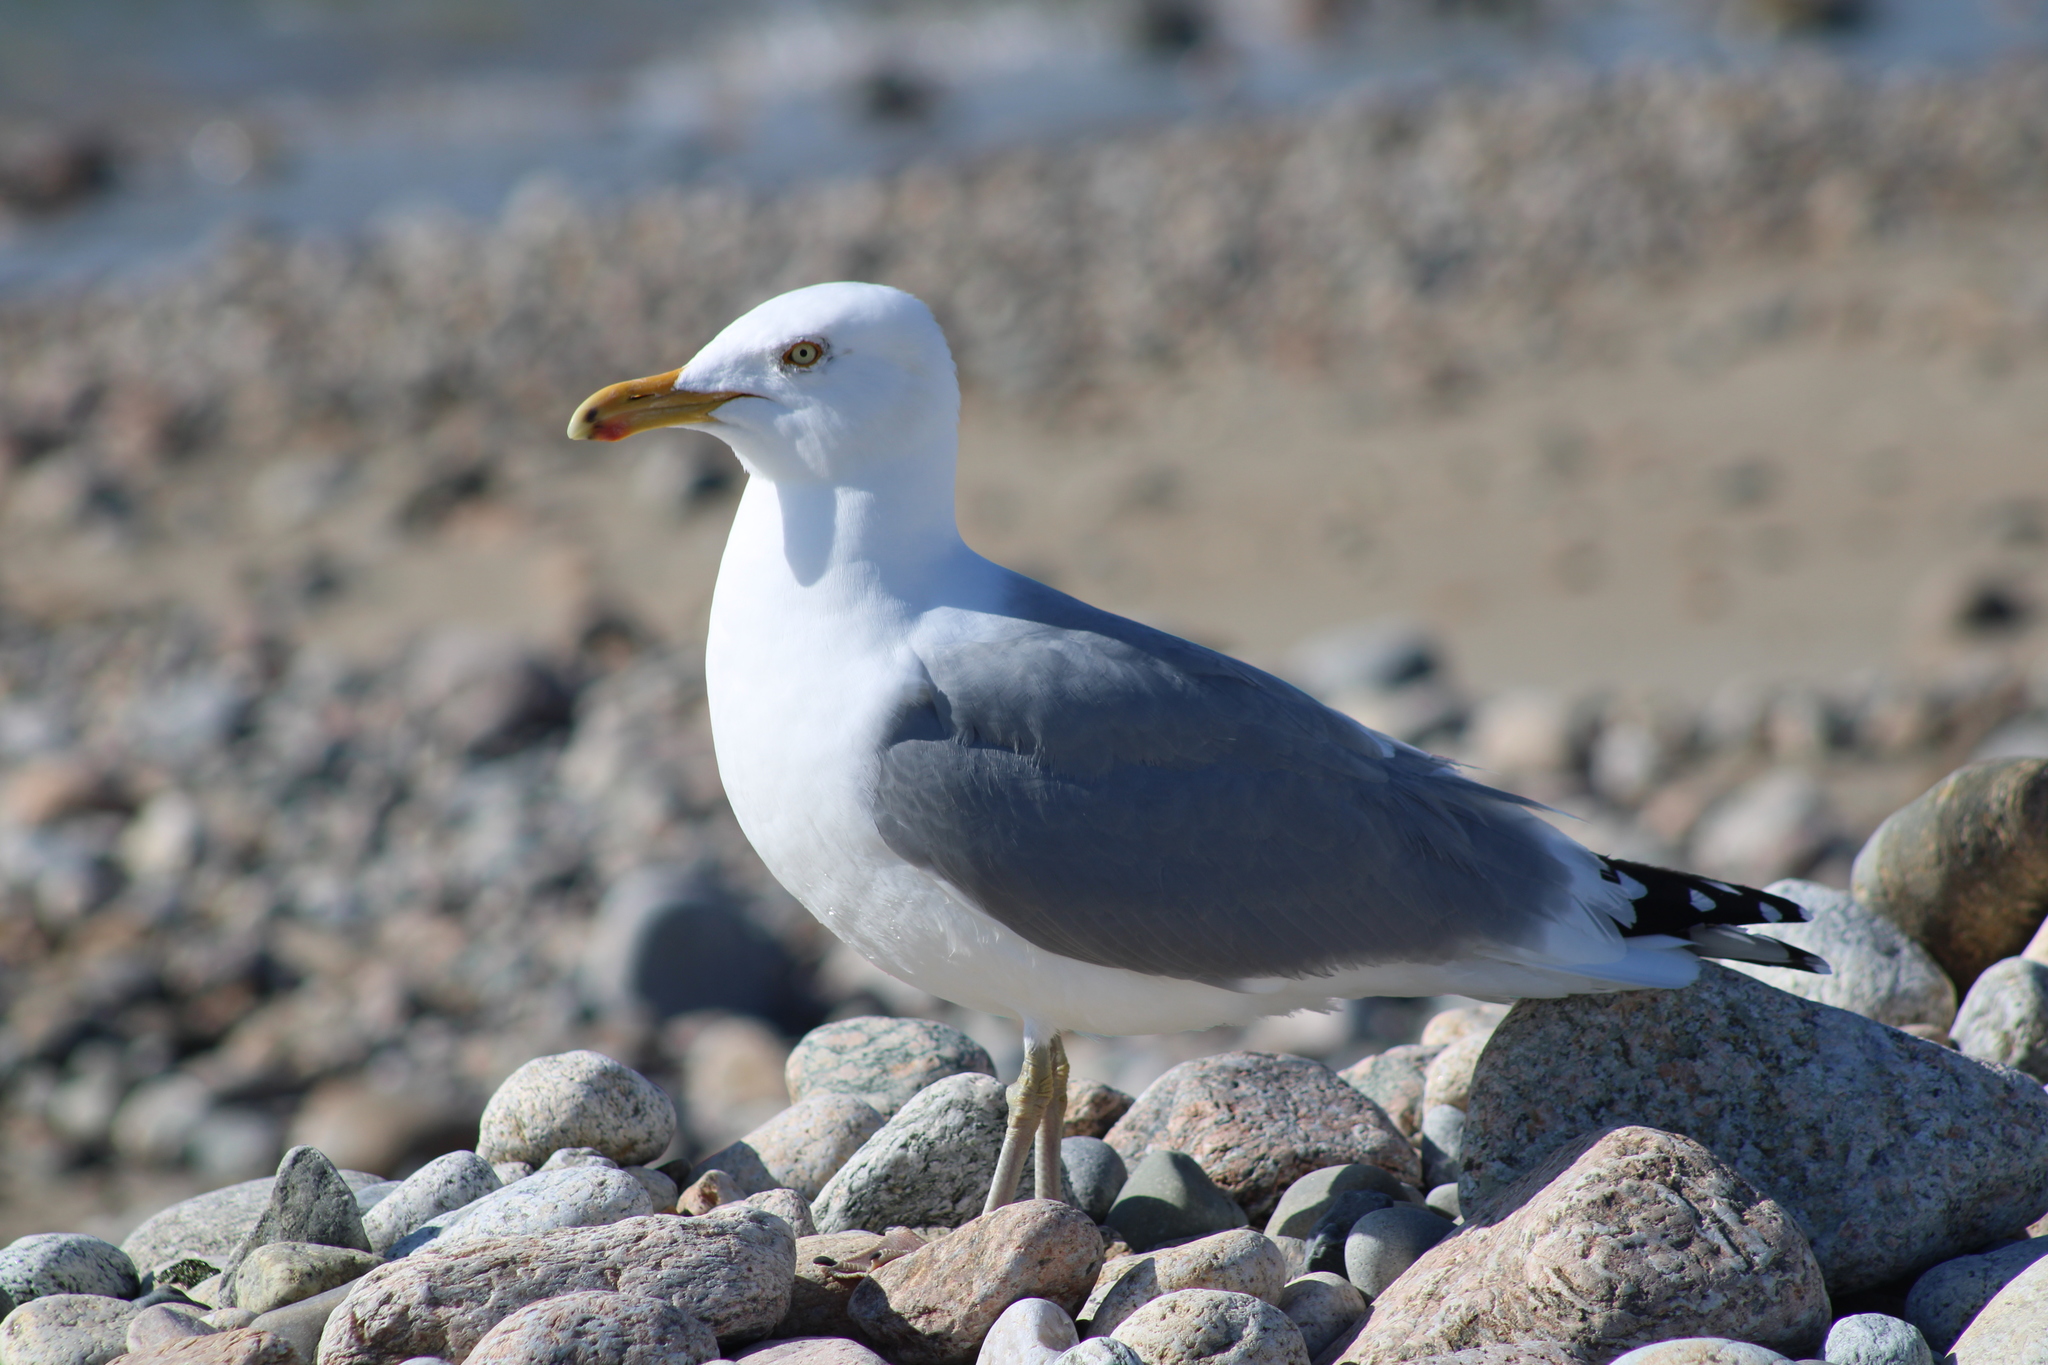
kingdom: Animalia
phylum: Chordata
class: Aves
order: Charadriiformes
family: Laridae
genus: Larus
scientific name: Larus fuscus
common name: Lesser black-backed gull
